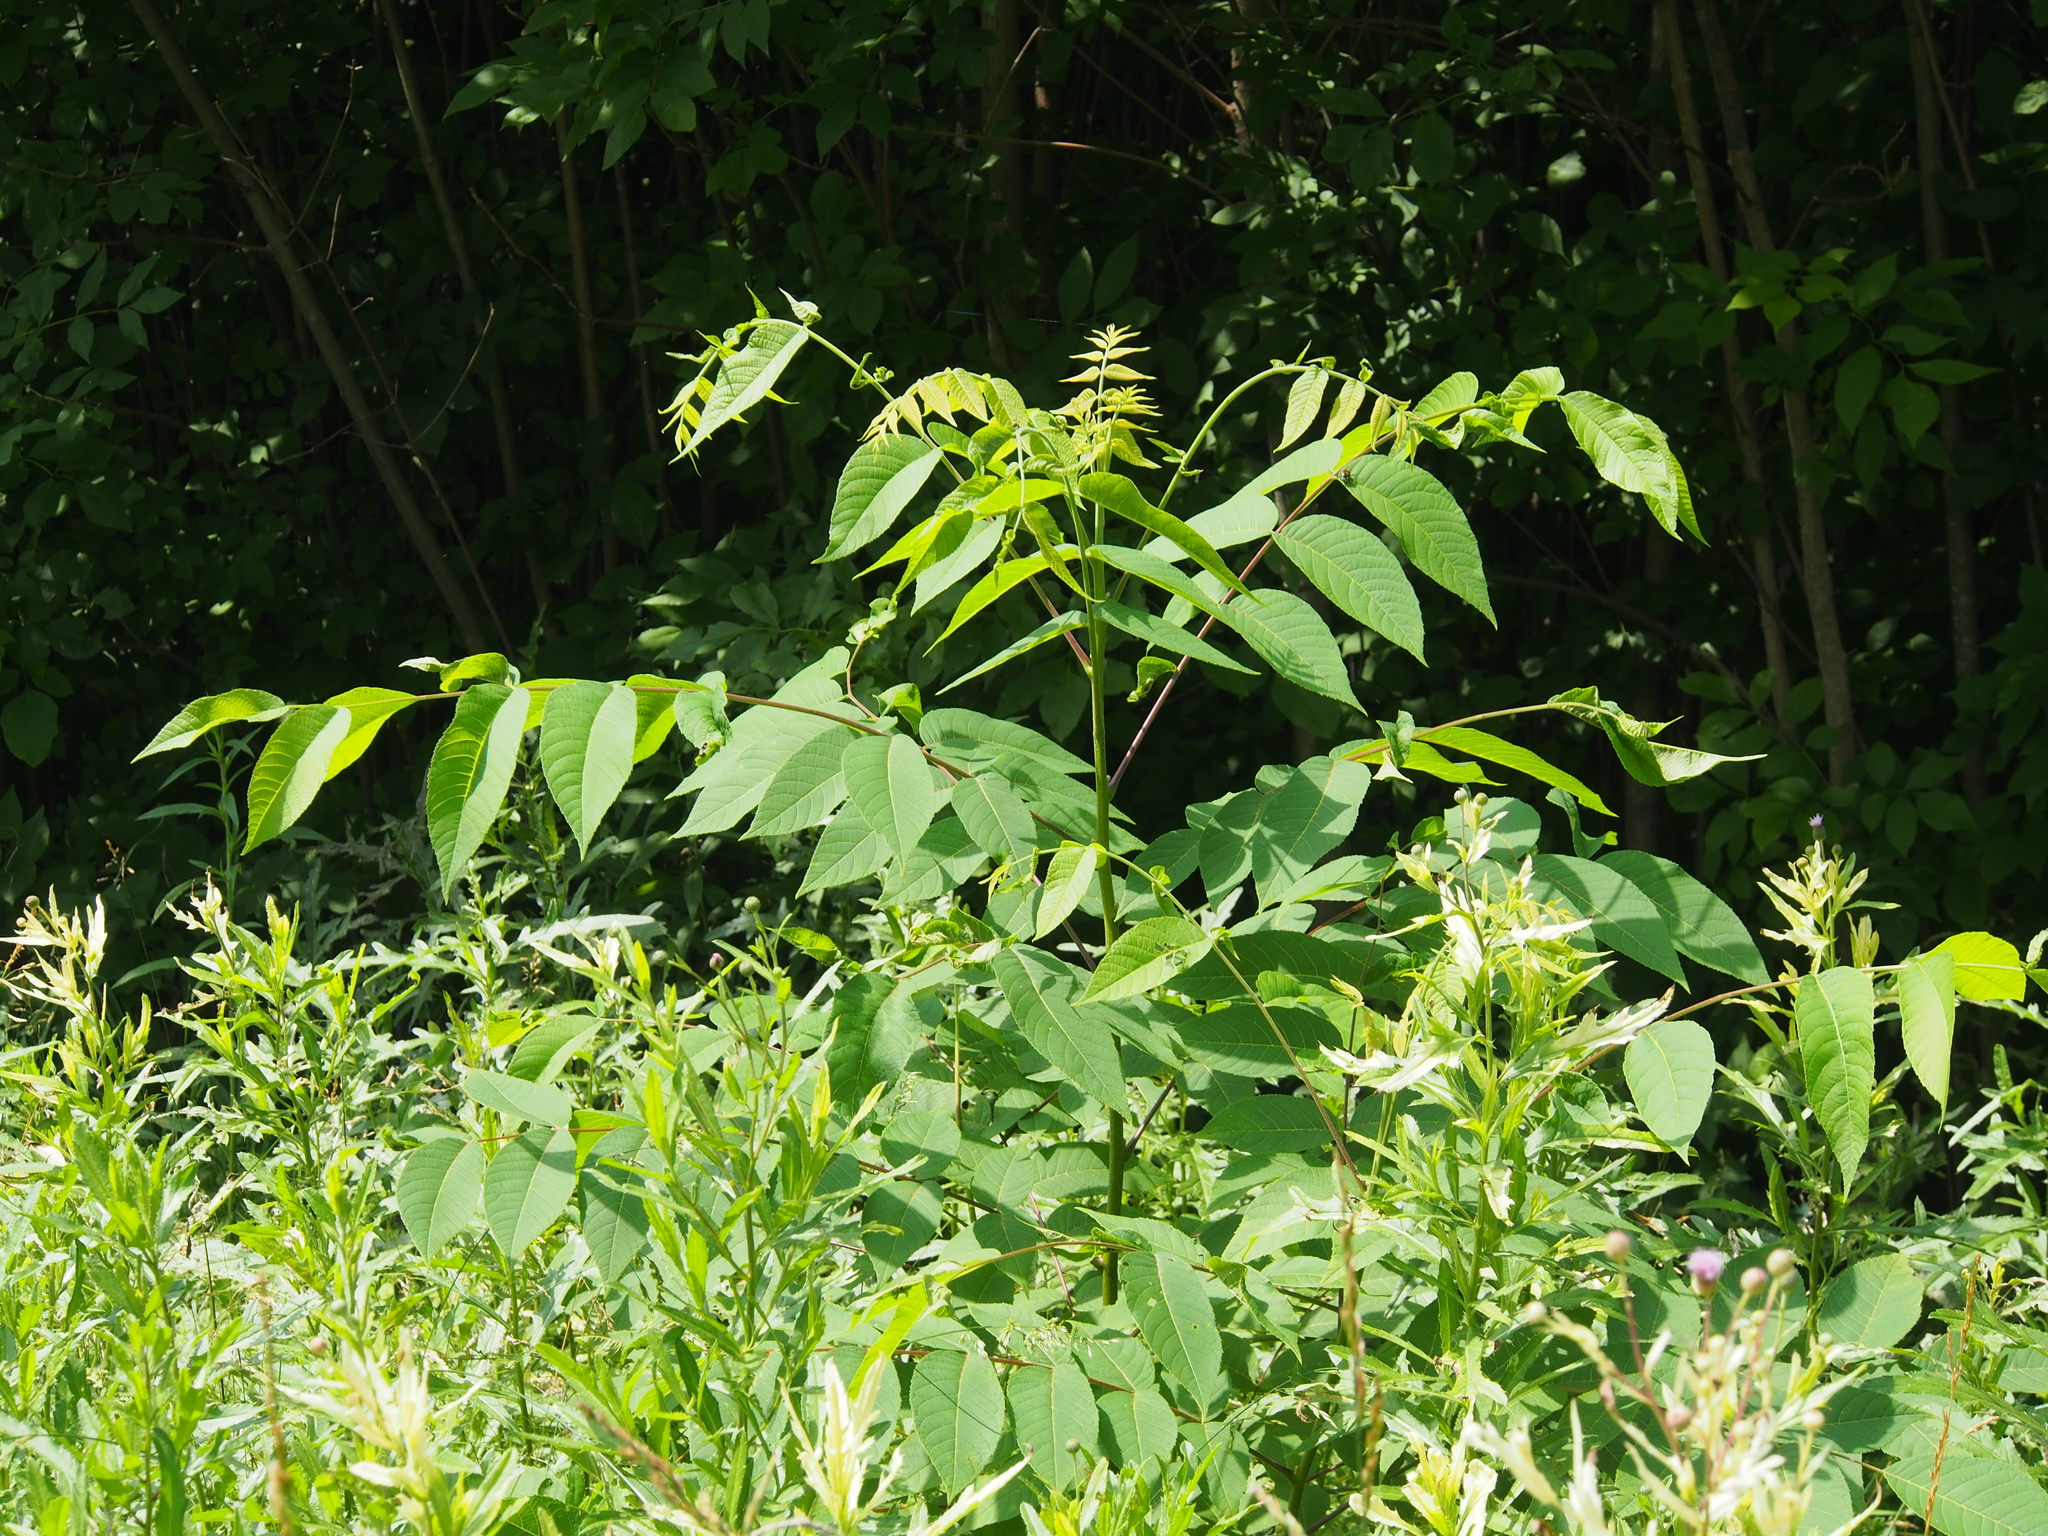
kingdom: Plantae
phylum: Tracheophyta
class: Magnoliopsida
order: Fagales
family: Juglandaceae
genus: Juglans
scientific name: Juglans nigra
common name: Black walnut
